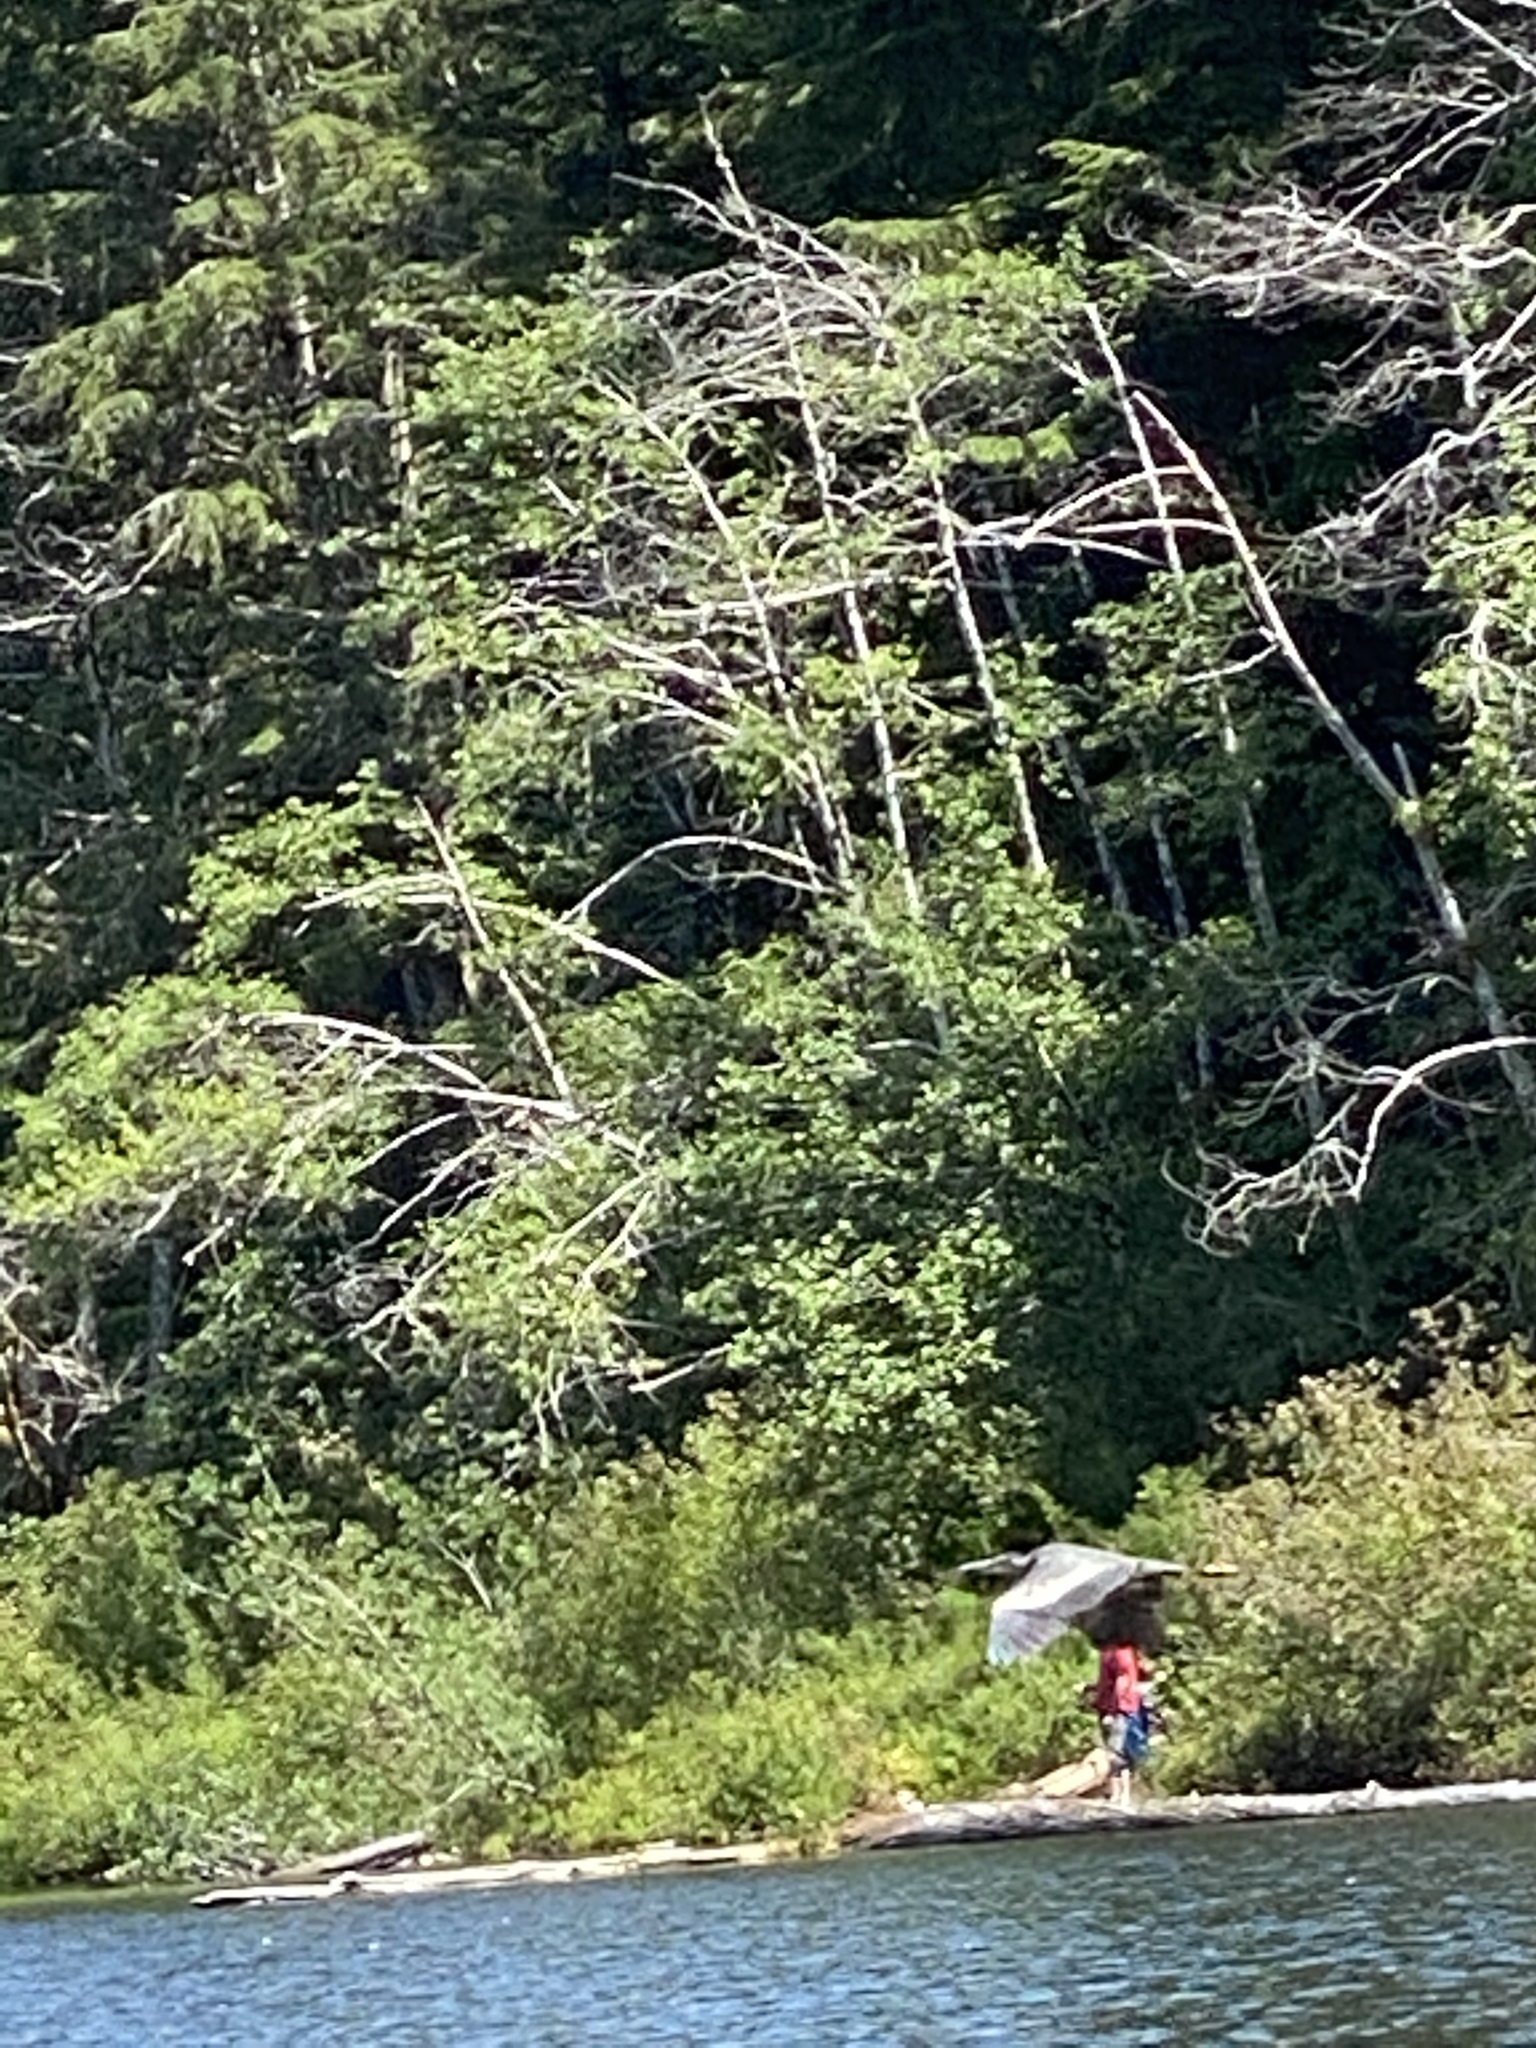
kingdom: Animalia
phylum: Chordata
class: Aves
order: Pelecaniformes
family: Ardeidae
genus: Ardea
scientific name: Ardea herodias
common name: Great blue heron
